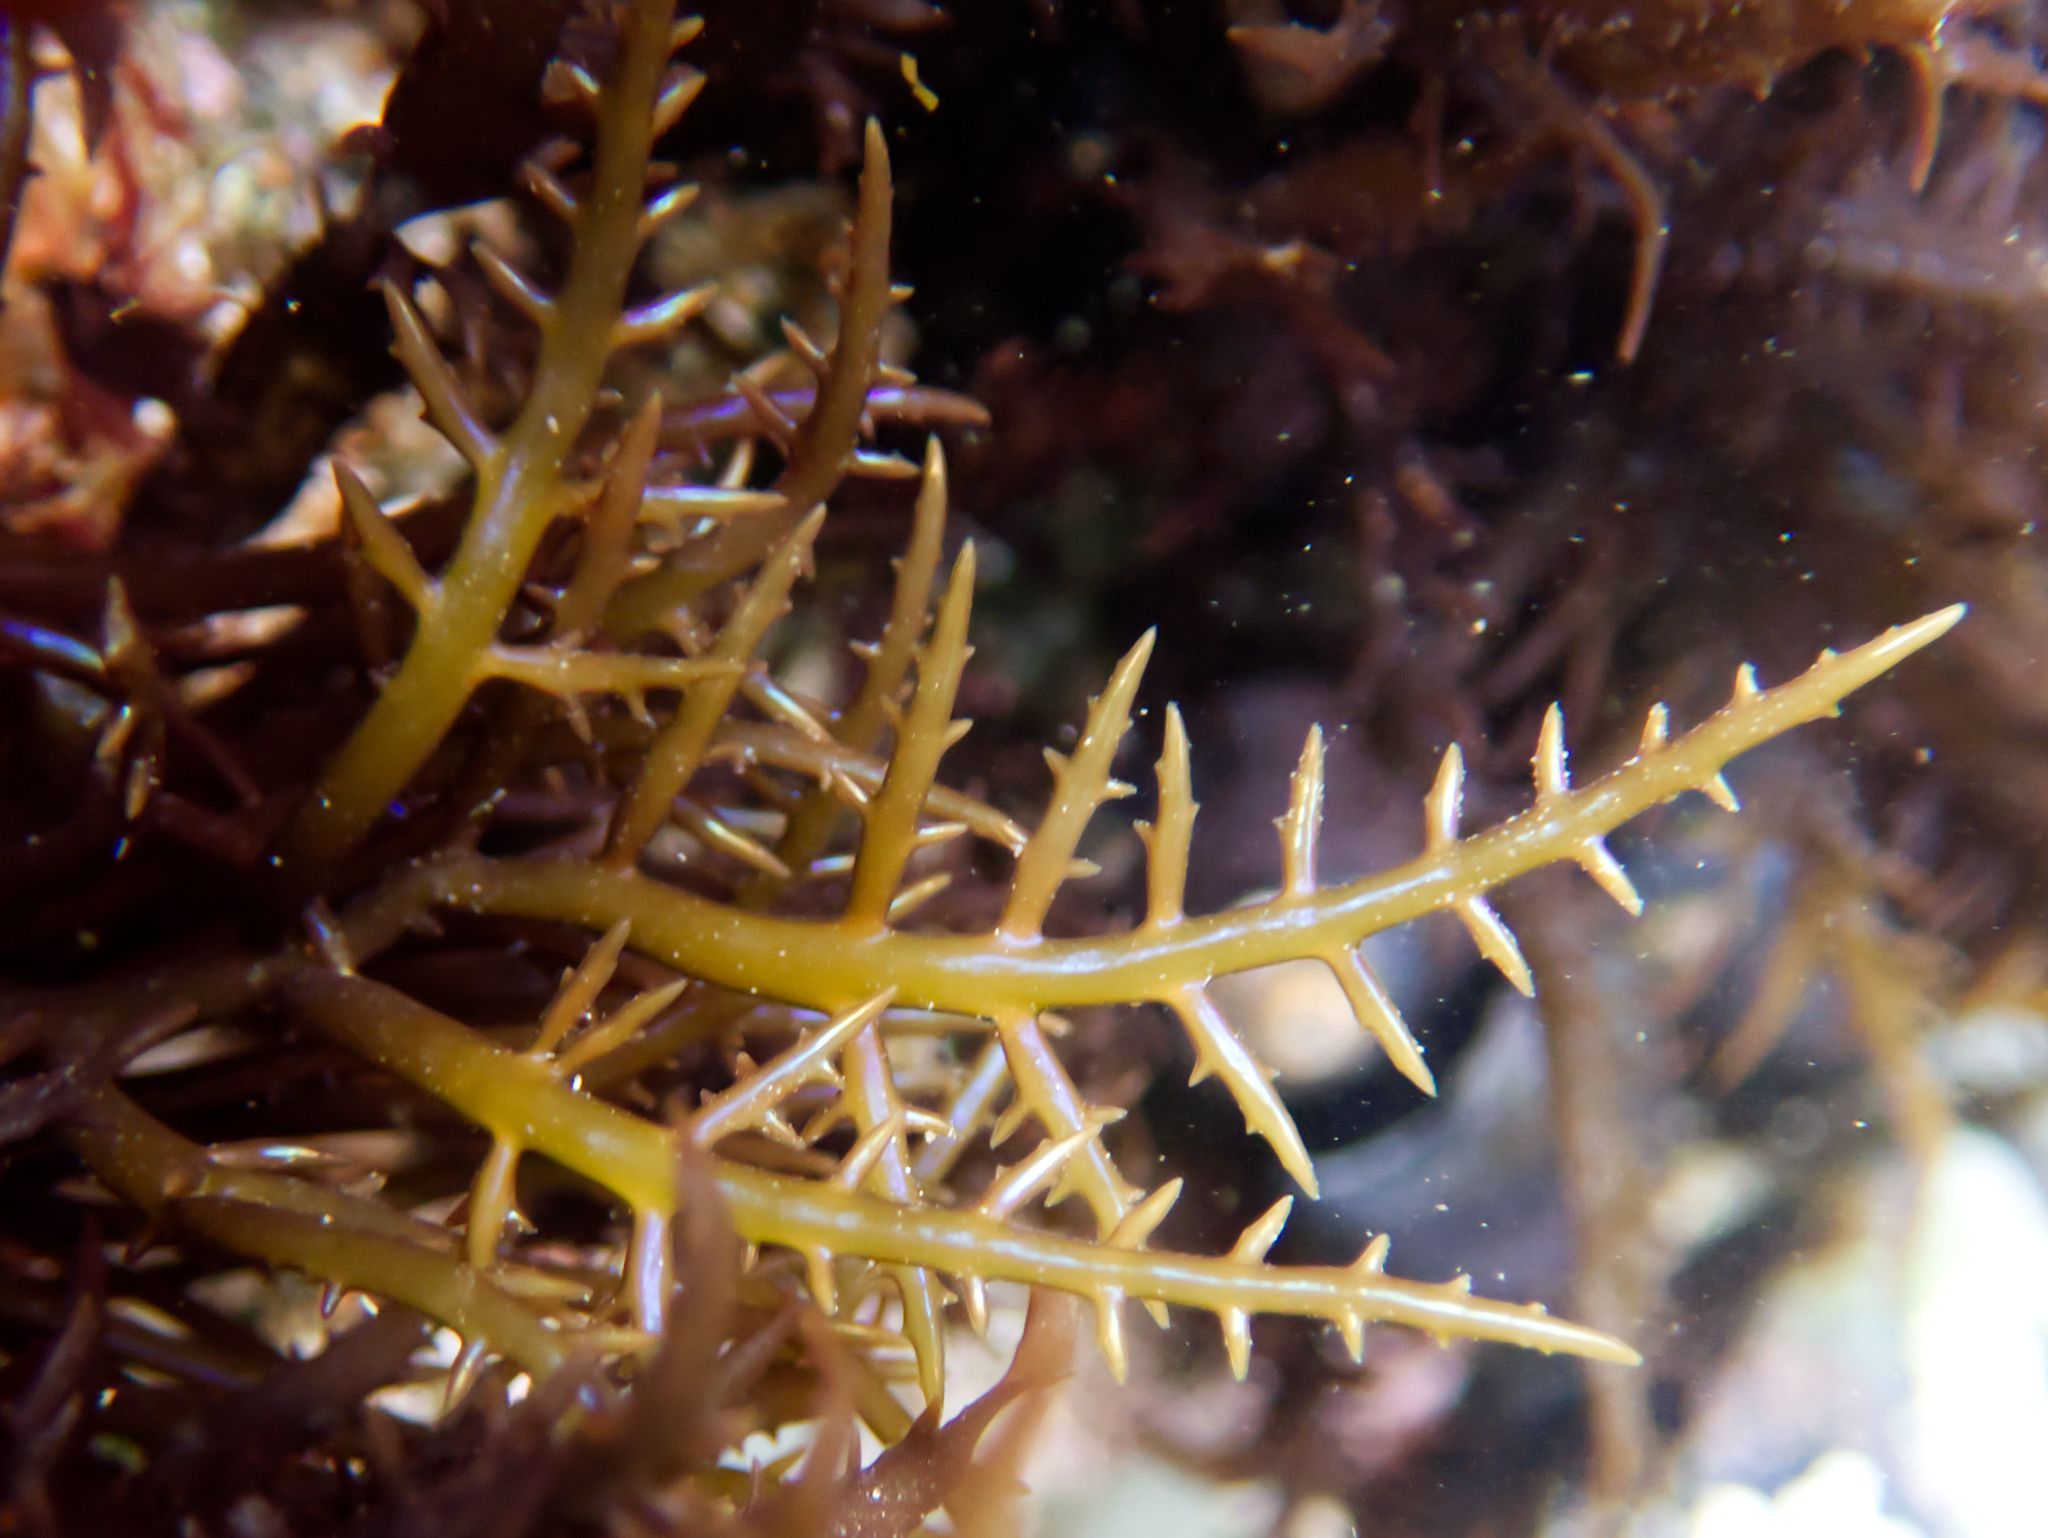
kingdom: Plantae
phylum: Rhodophyta
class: Florideophyceae
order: Gigartinales
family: Gigartinaceae
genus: Chondracanthus
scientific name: Chondracanthus canaliculatus
